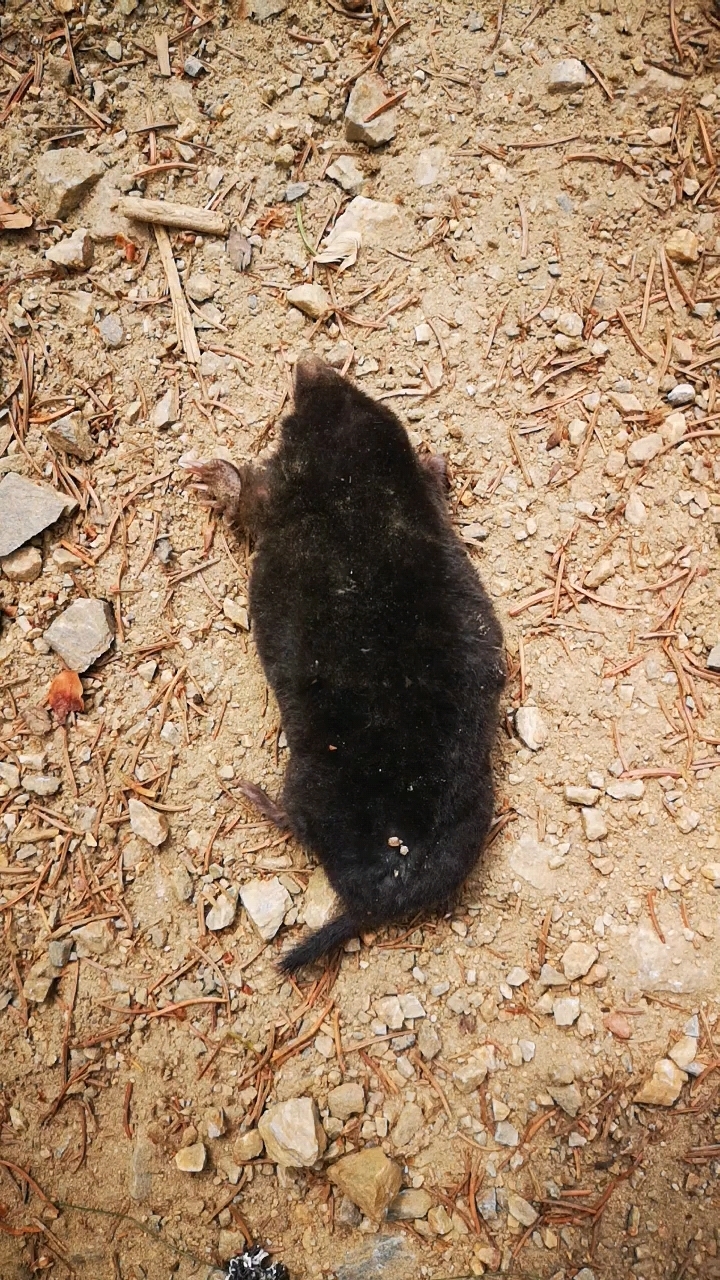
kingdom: Animalia
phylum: Chordata
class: Mammalia
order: Soricomorpha
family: Talpidae
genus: Talpa
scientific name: Talpa europaea
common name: European mole
